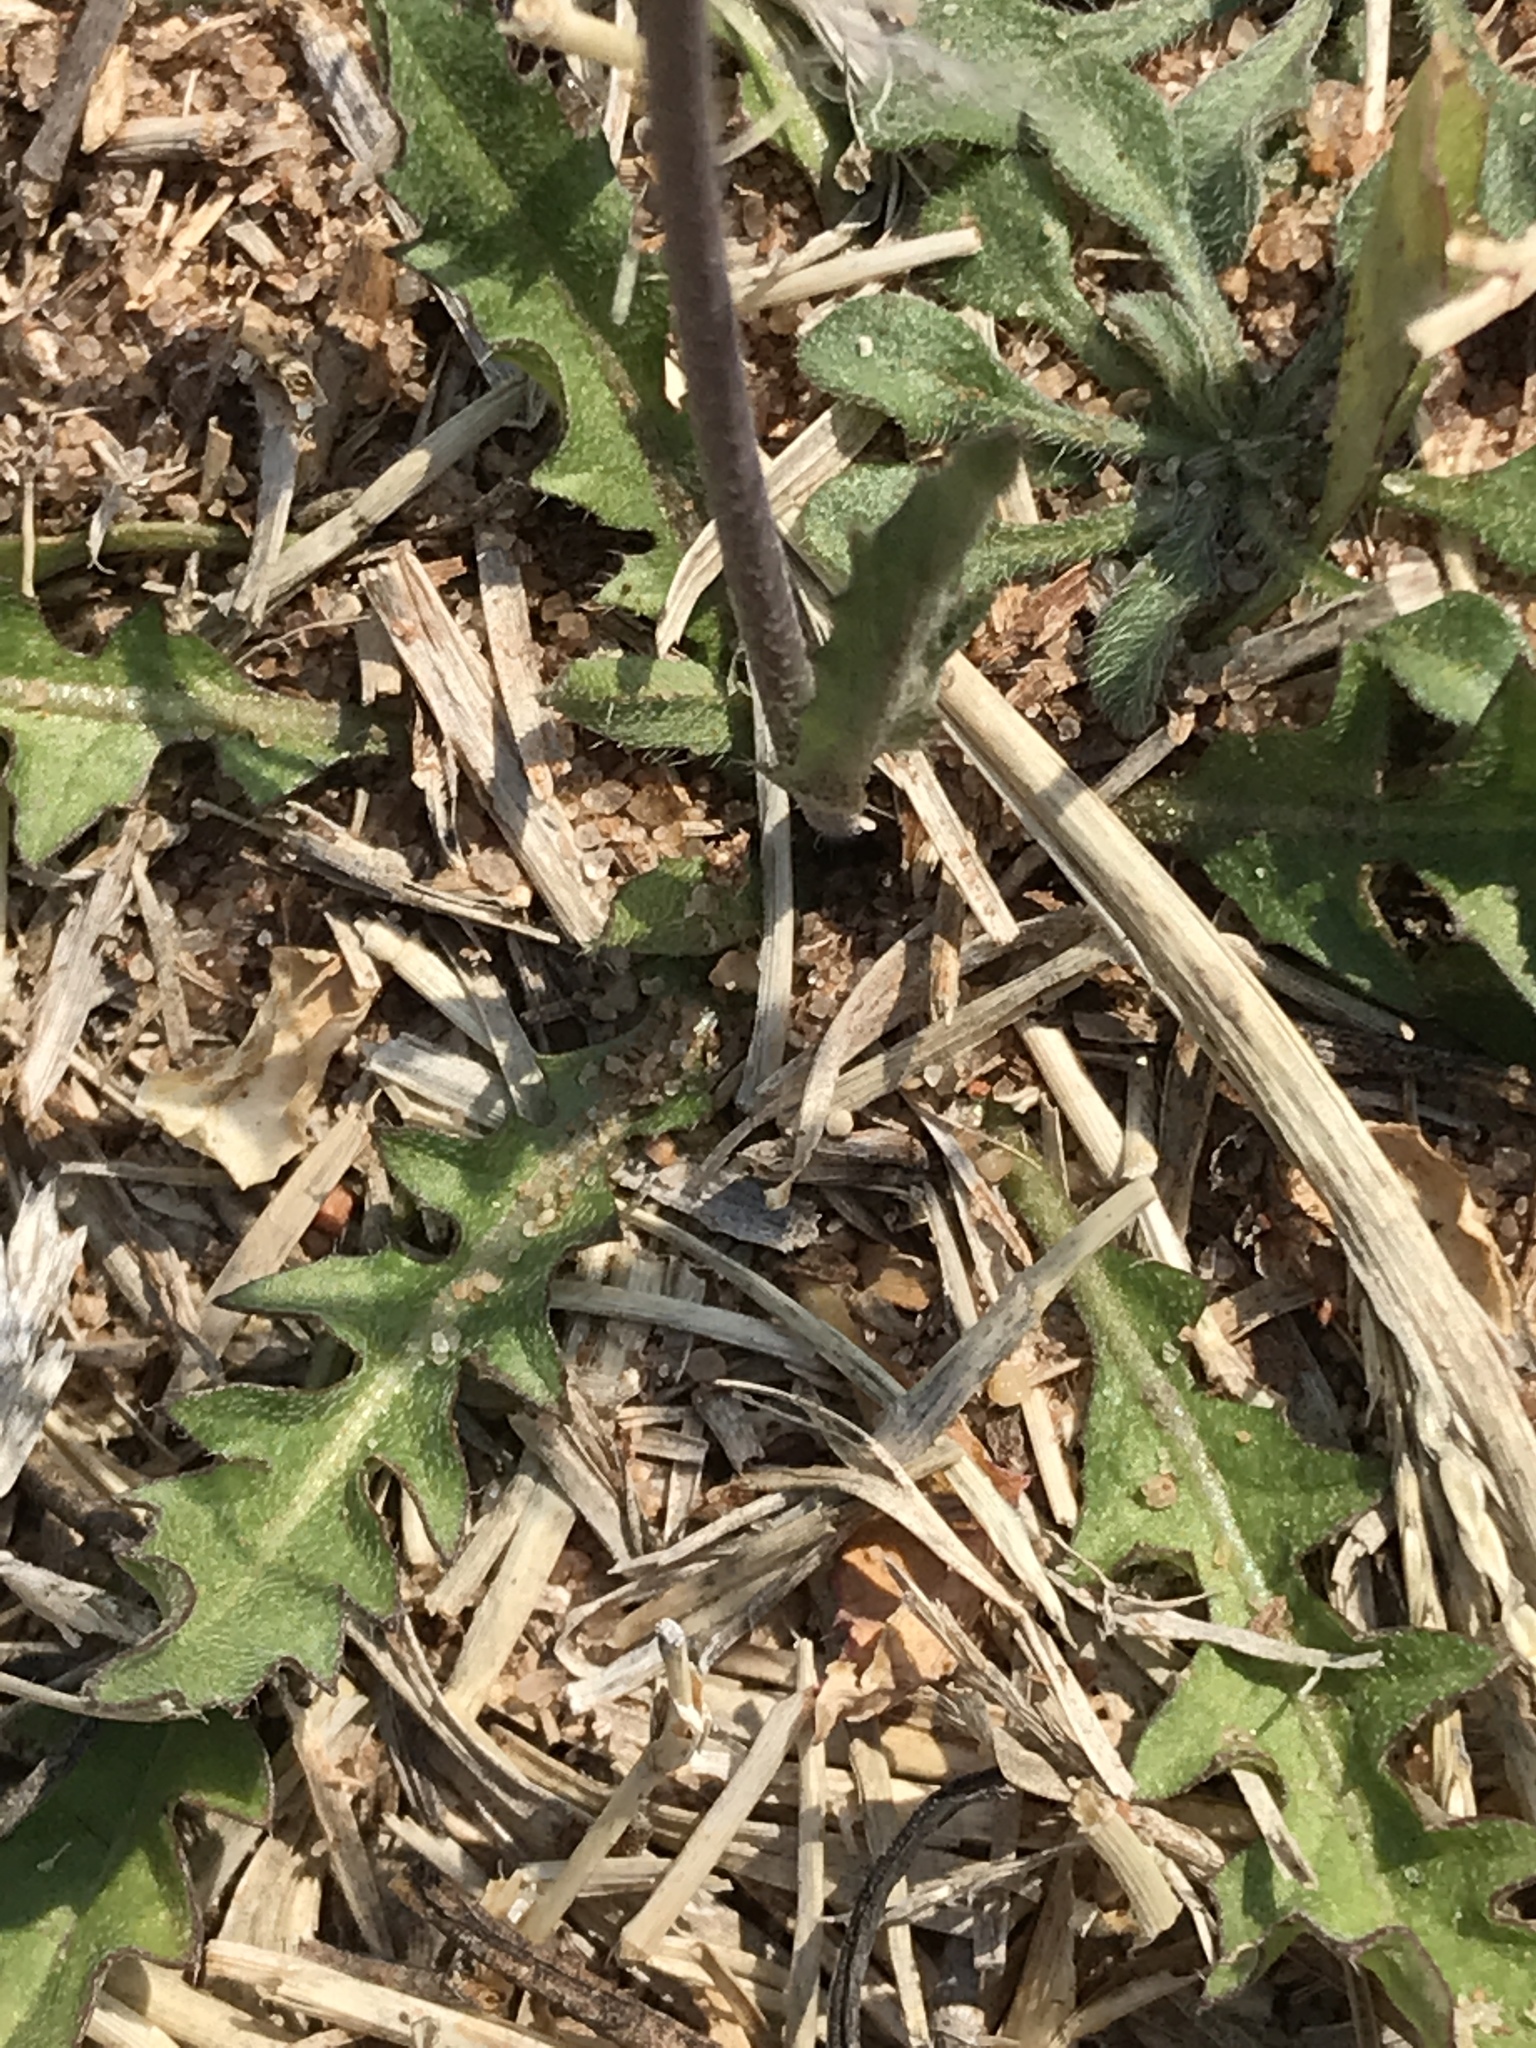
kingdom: Plantae
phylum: Tracheophyta
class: Magnoliopsida
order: Brassicales
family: Brassicaceae
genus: Capsella
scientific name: Capsella bursa-pastoris
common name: Shepherd's purse
